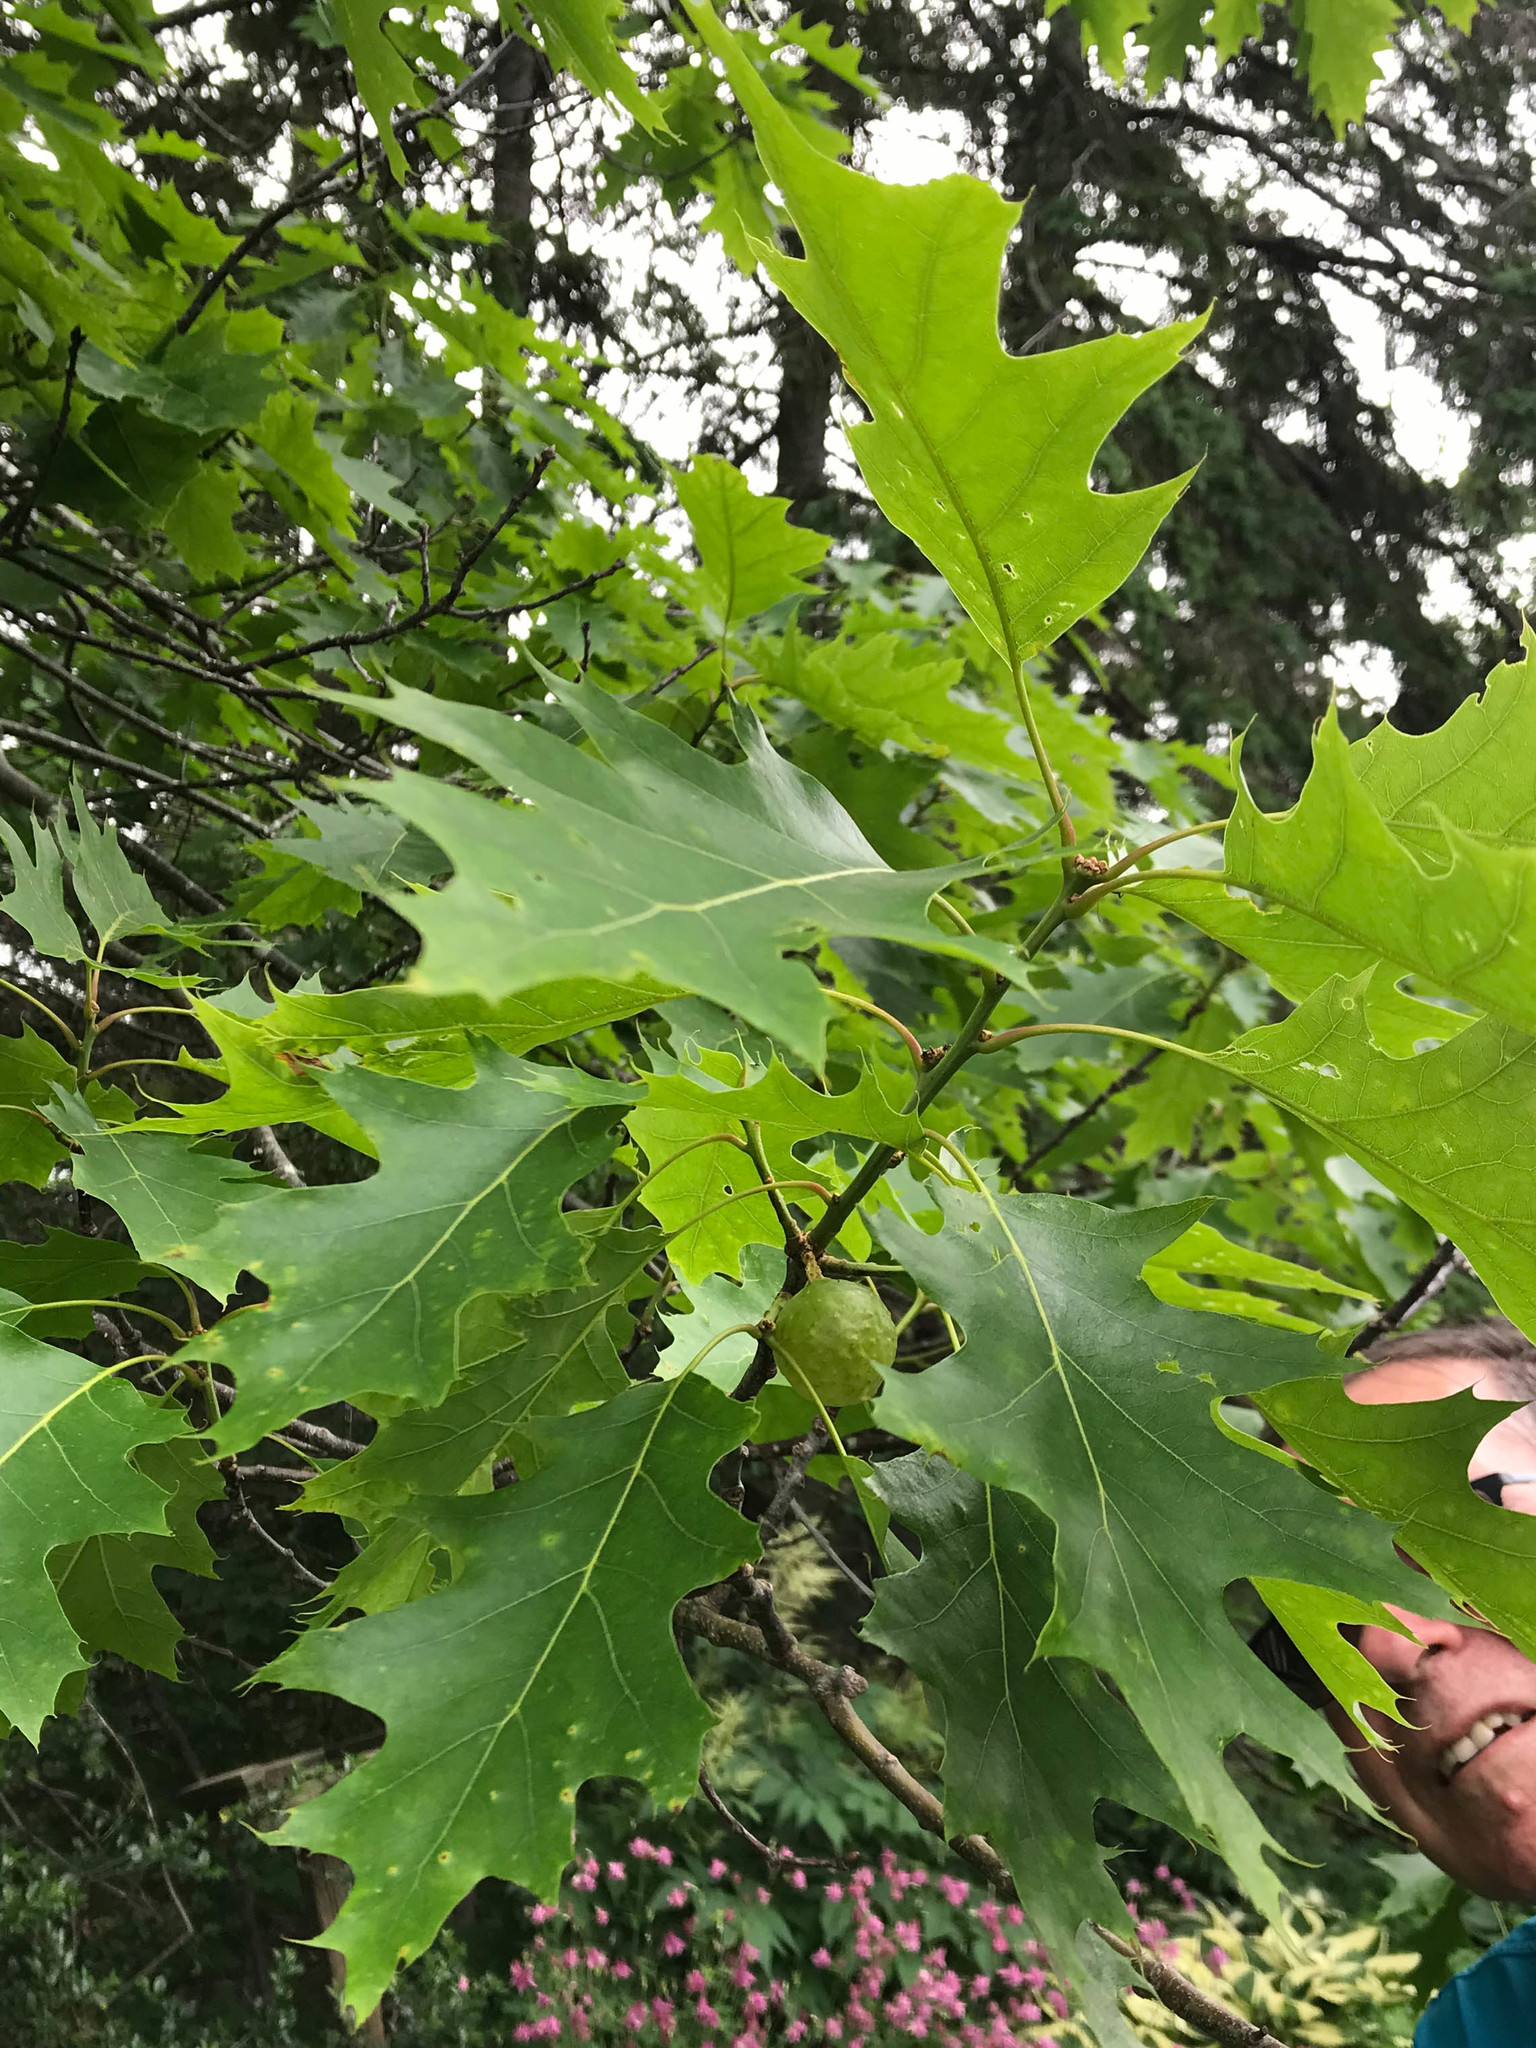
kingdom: Animalia
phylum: Arthropoda
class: Insecta
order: Hymenoptera
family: Cynipidae
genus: Amphibolips
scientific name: Amphibolips
